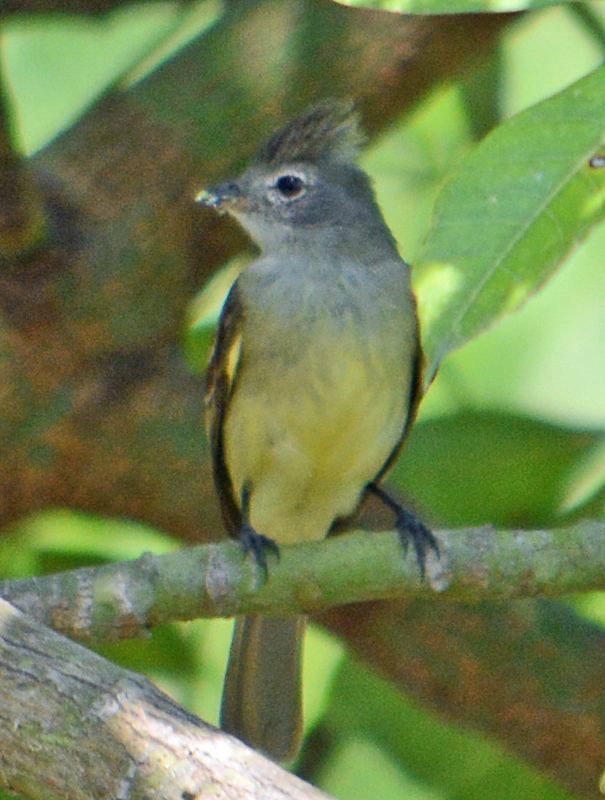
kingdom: Animalia
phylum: Chordata
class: Aves
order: Passeriformes
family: Tyrannidae
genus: Elaenia
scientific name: Elaenia flavogaster
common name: Yellow-bellied elaenia
